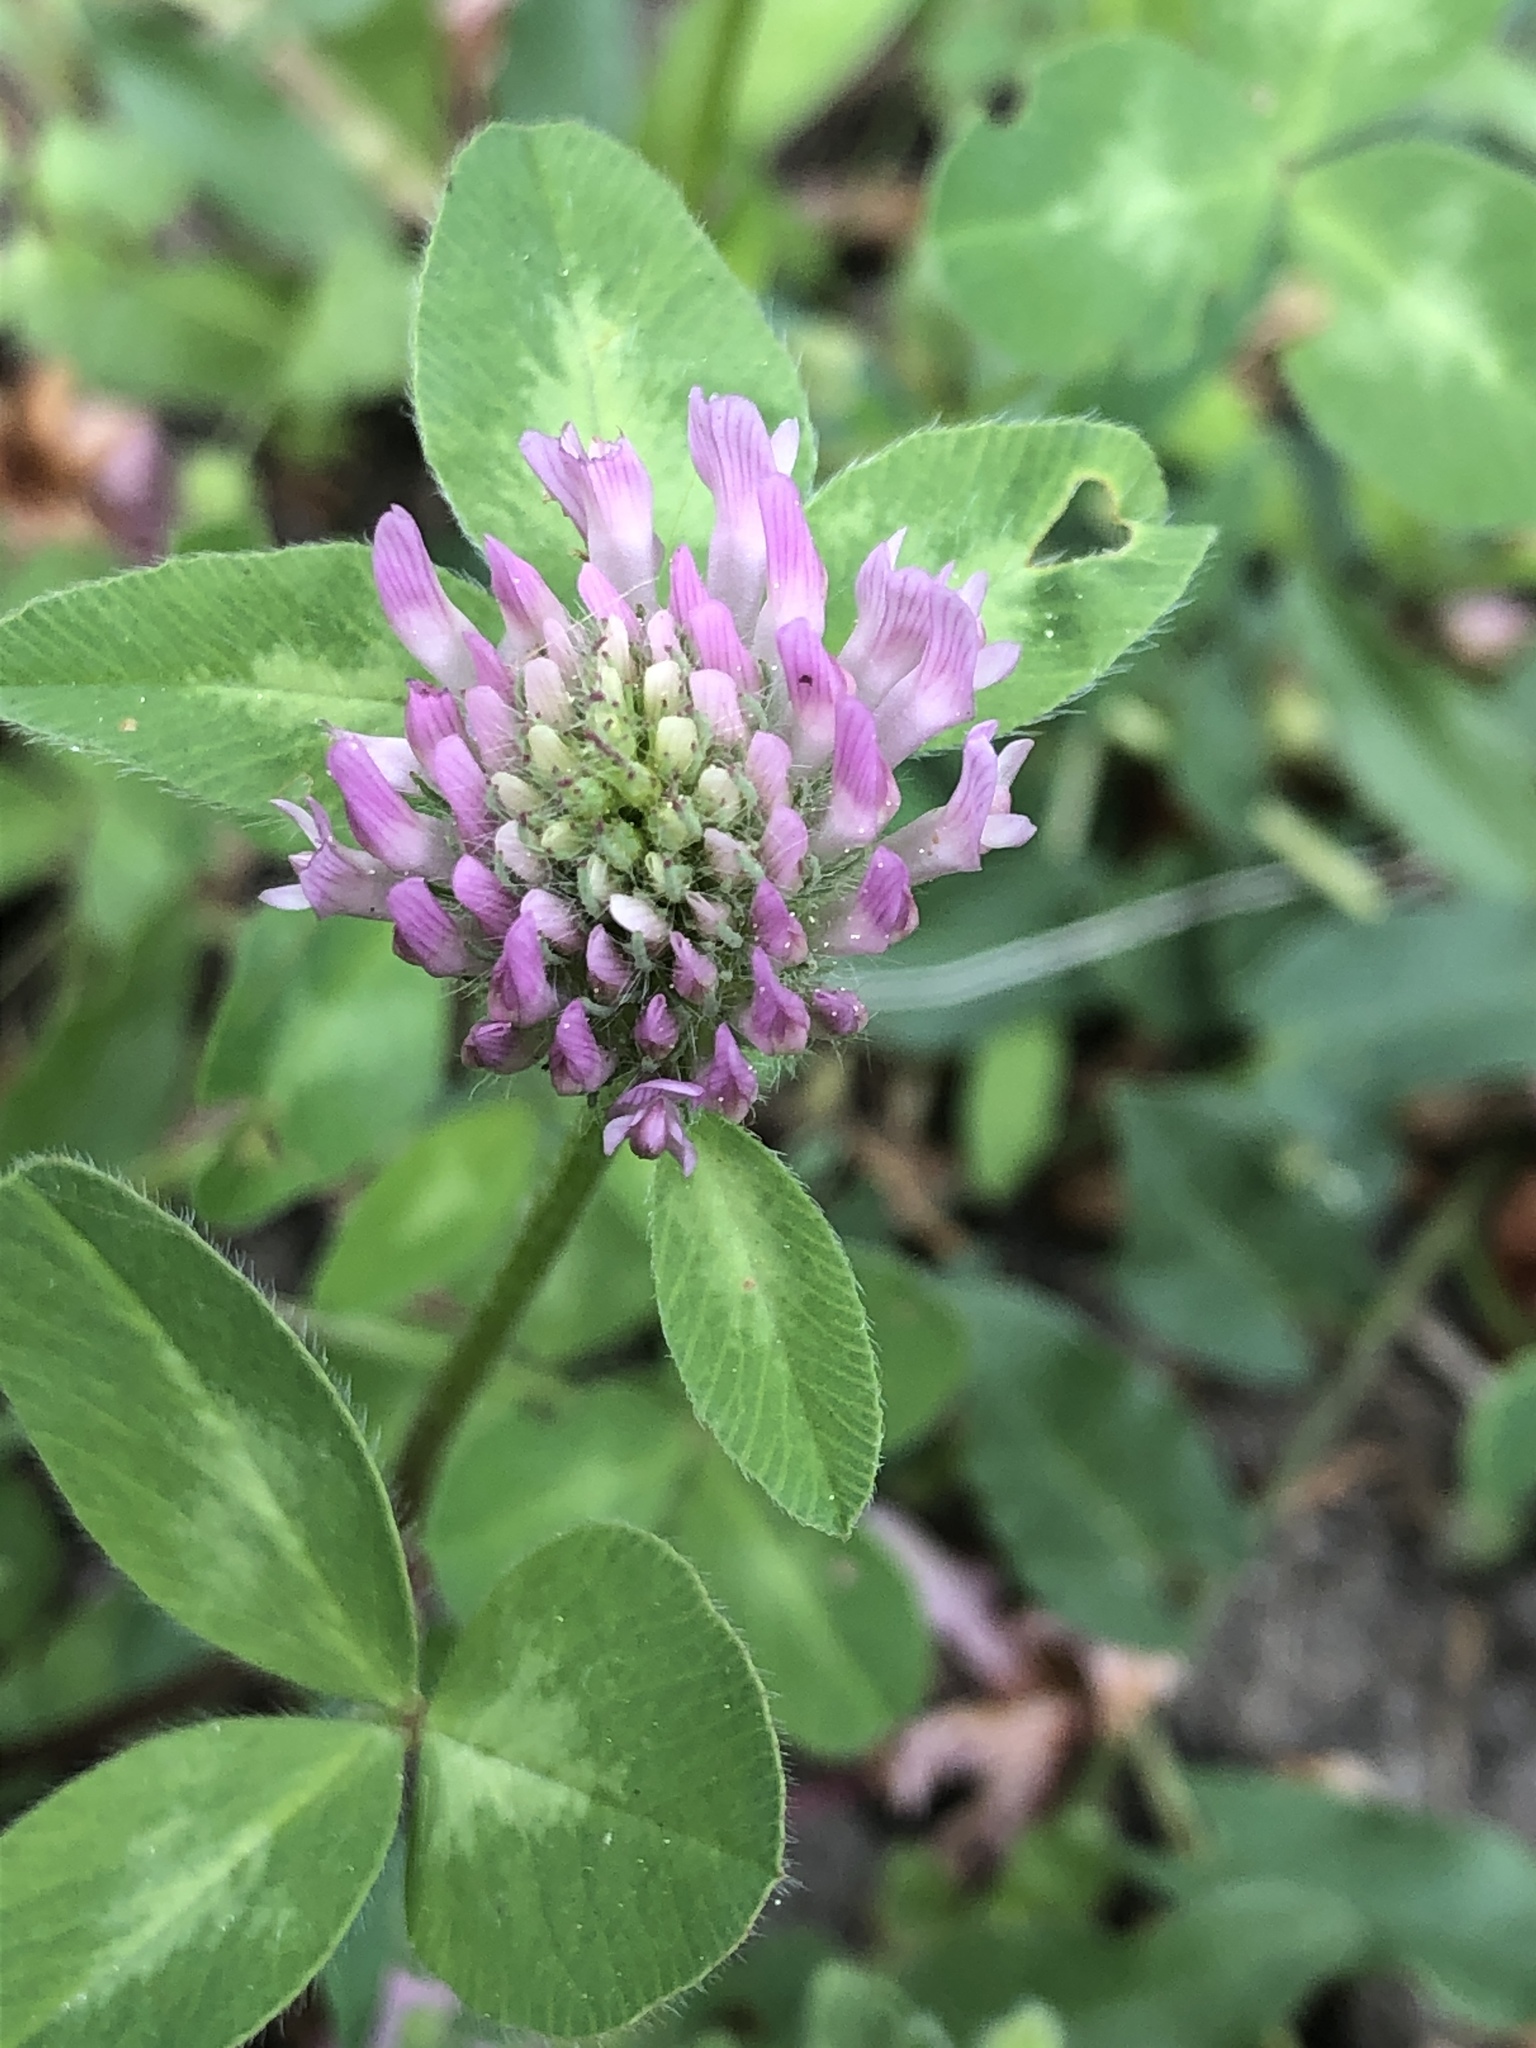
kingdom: Plantae
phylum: Tracheophyta
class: Magnoliopsida
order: Fabales
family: Fabaceae
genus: Trifolium
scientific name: Trifolium pratense
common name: Red clover
